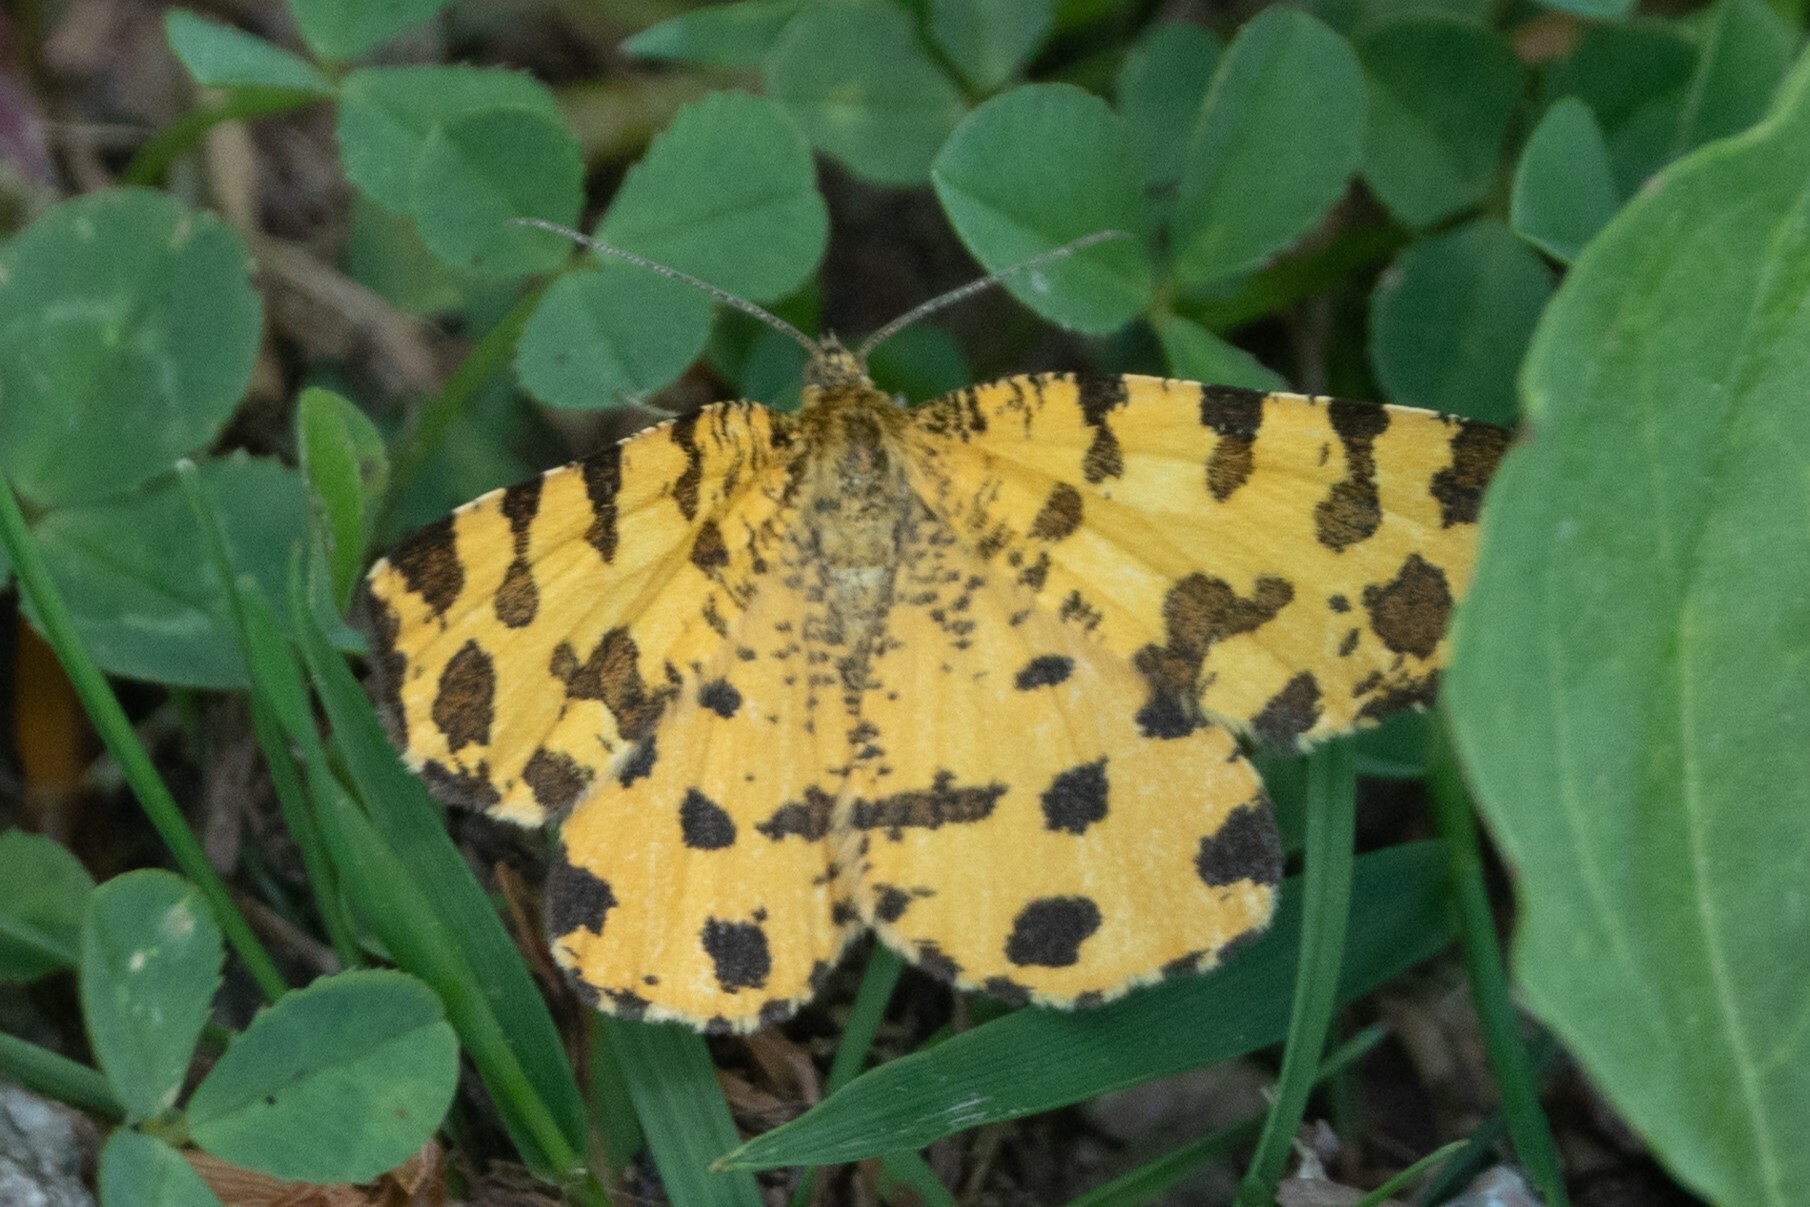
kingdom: Animalia
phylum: Arthropoda
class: Insecta
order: Lepidoptera
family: Geometridae
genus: Pseudopanthera
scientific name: Pseudopanthera macularia
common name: Speckled yellow
